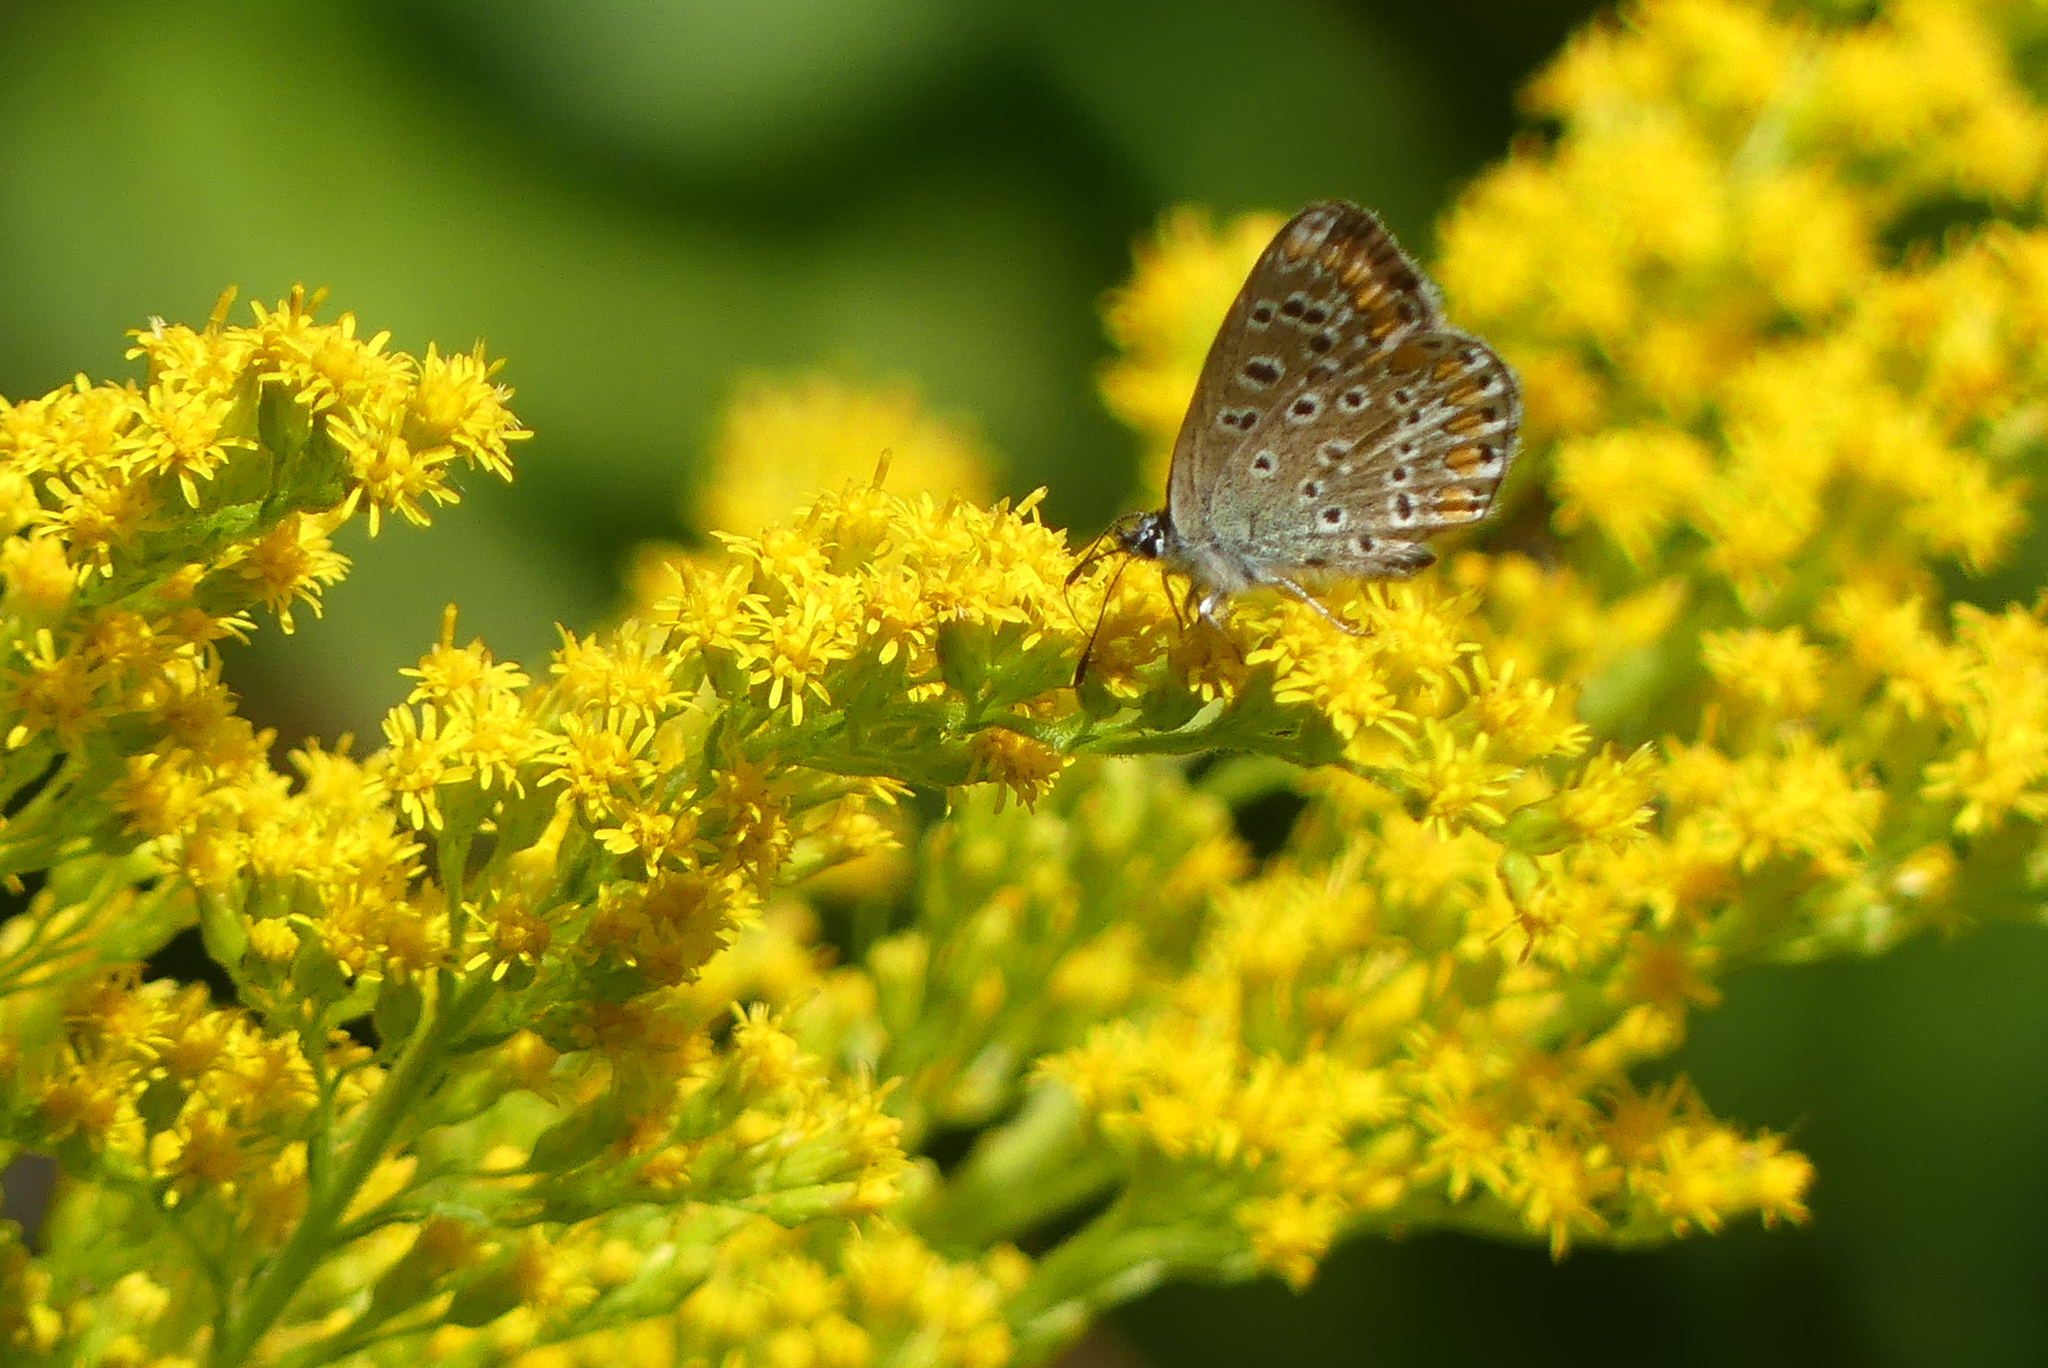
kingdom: Animalia
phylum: Arthropoda
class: Insecta
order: Lepidoptera
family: Lycaenidae
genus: Polyommatus
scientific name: Polyommatus icarus
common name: Common blue
